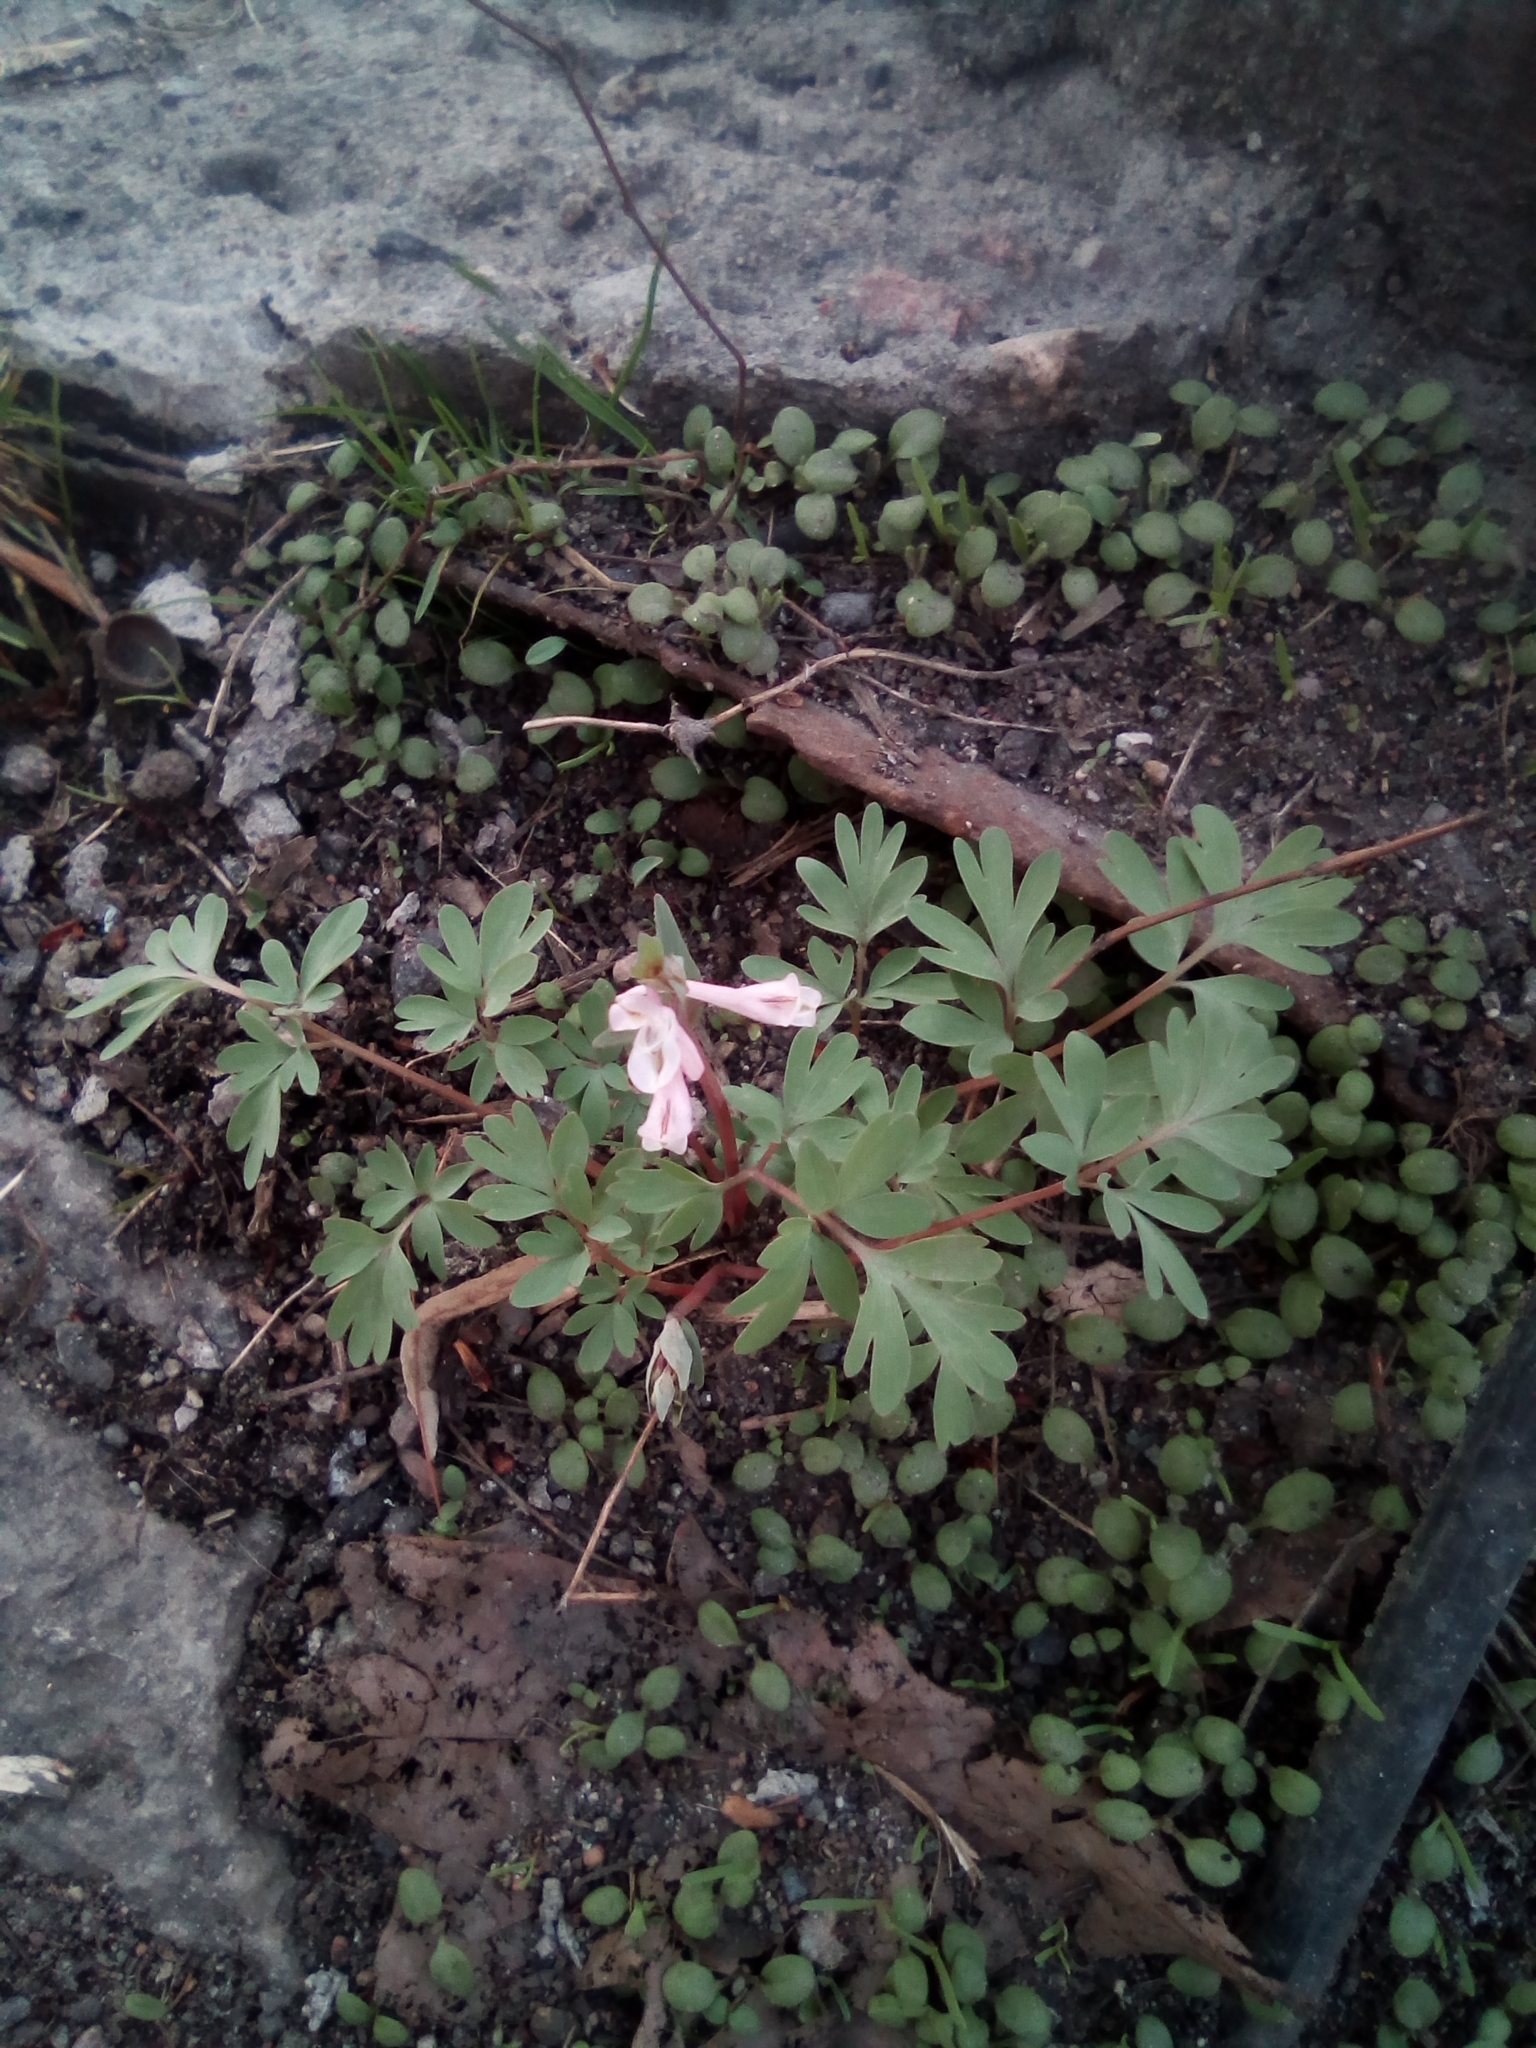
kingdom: Plantae
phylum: Tracheophyta
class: Magnoliopsida
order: Ranunculales
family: Papaveraceae
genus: Corydalis
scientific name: Corydalis glaucescens
